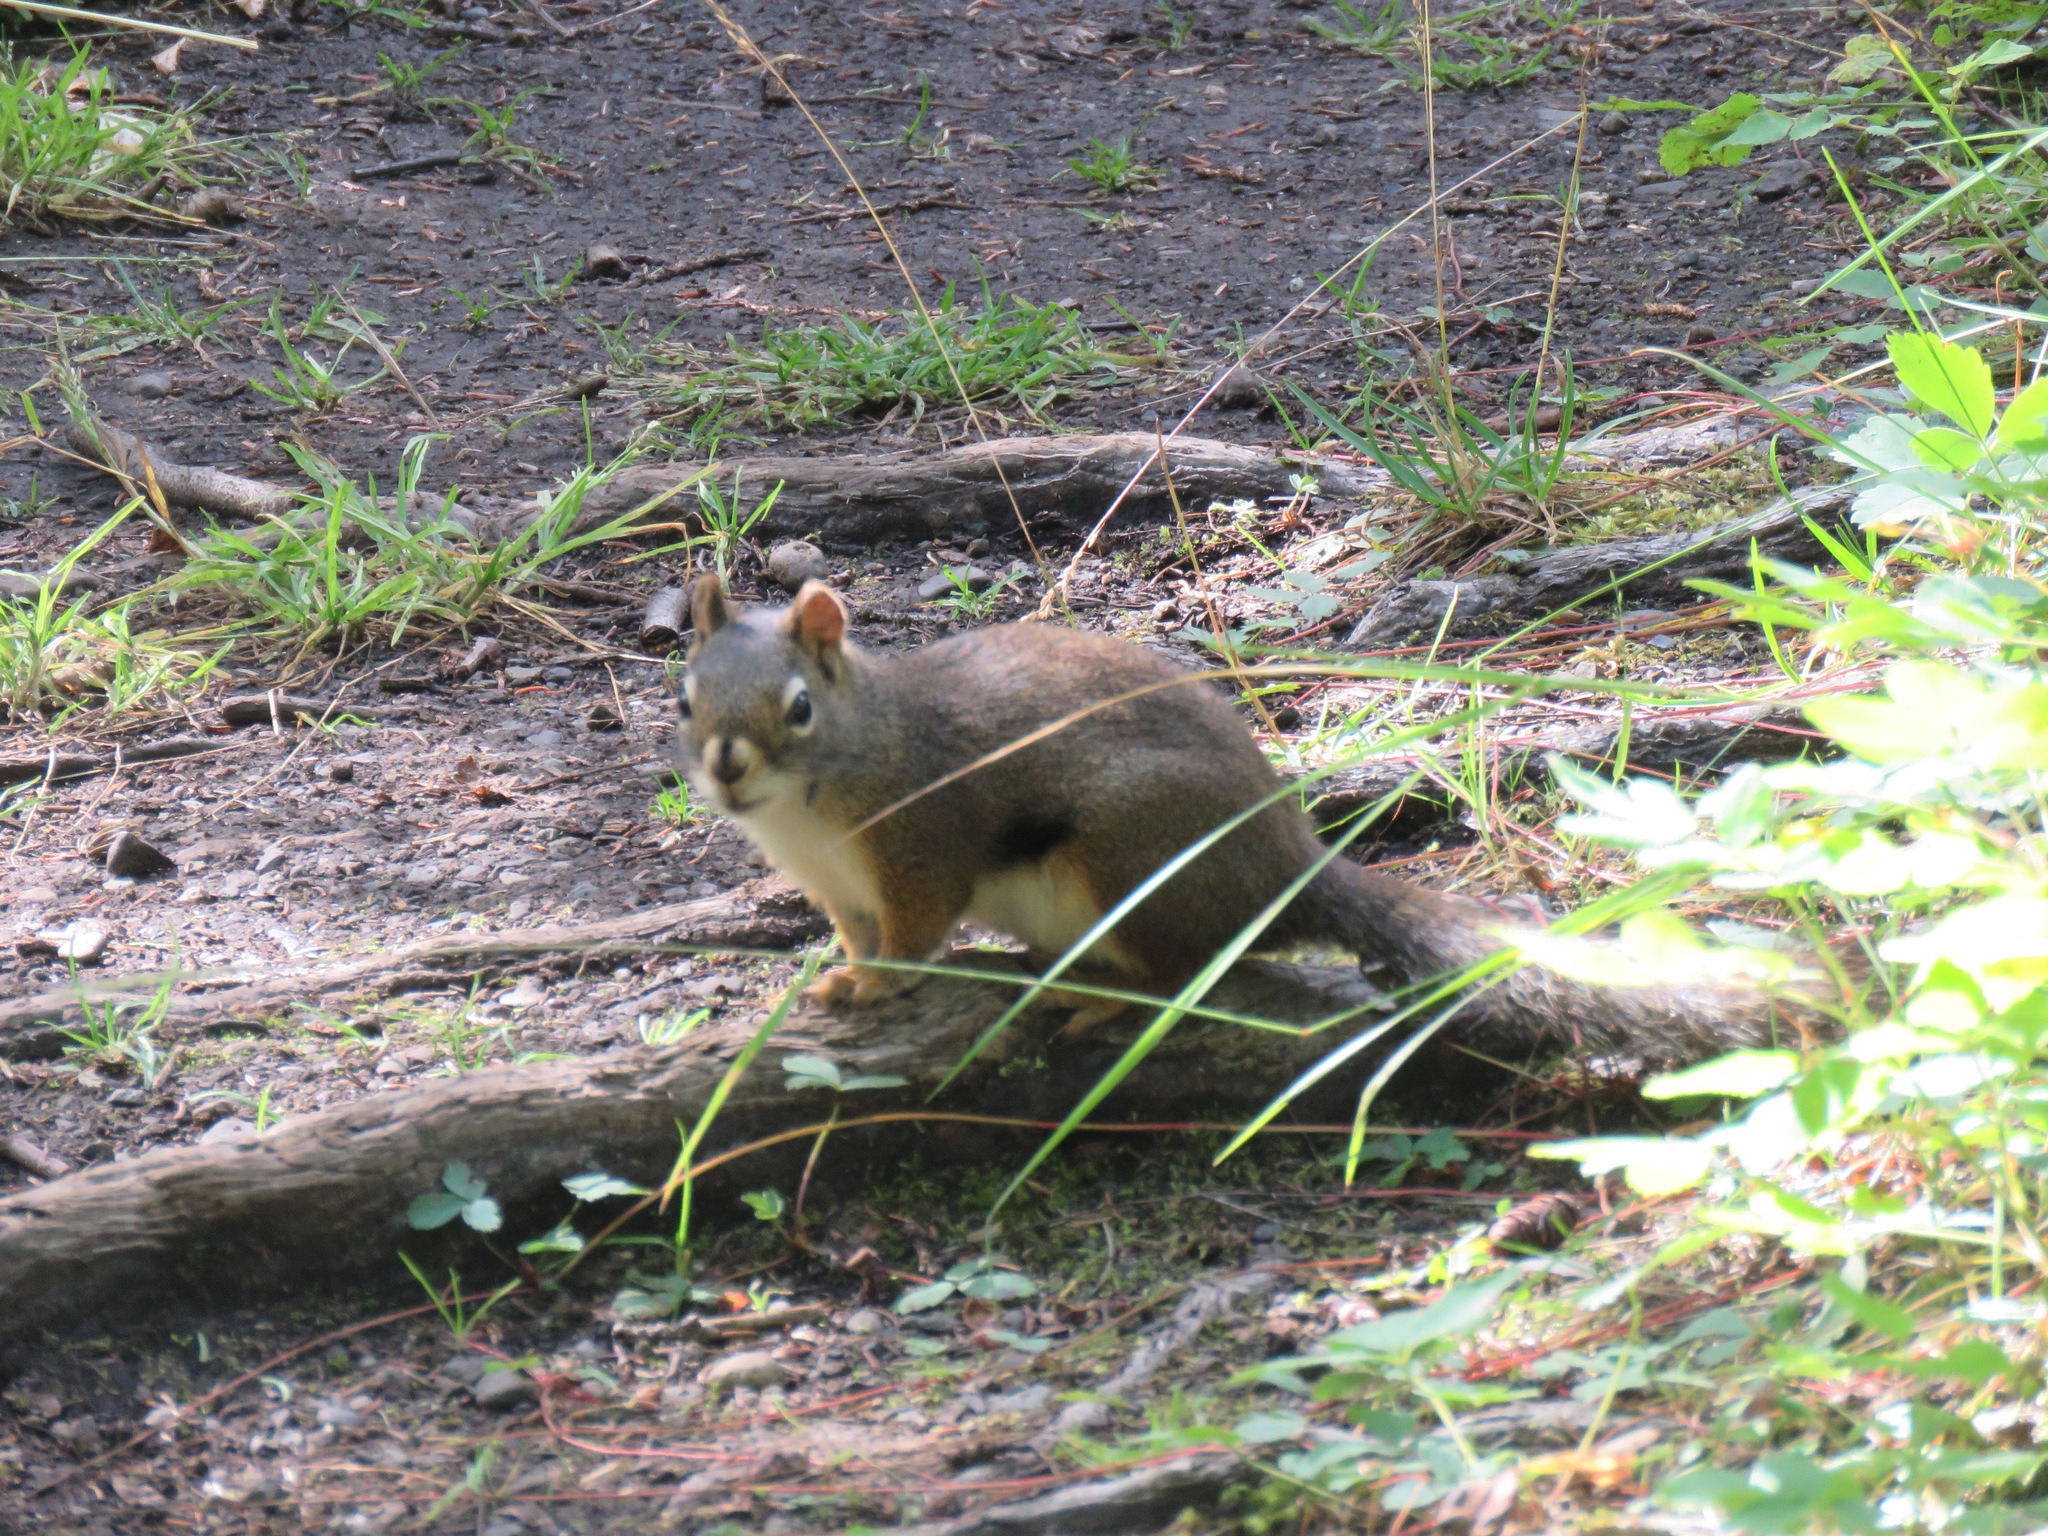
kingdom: Animalia
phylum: Chordata
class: Mammalia
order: Rodentia
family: Sciuridae
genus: Tamiasciurus
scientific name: Tamiasciurus hudsonicus
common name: Red squirrel
